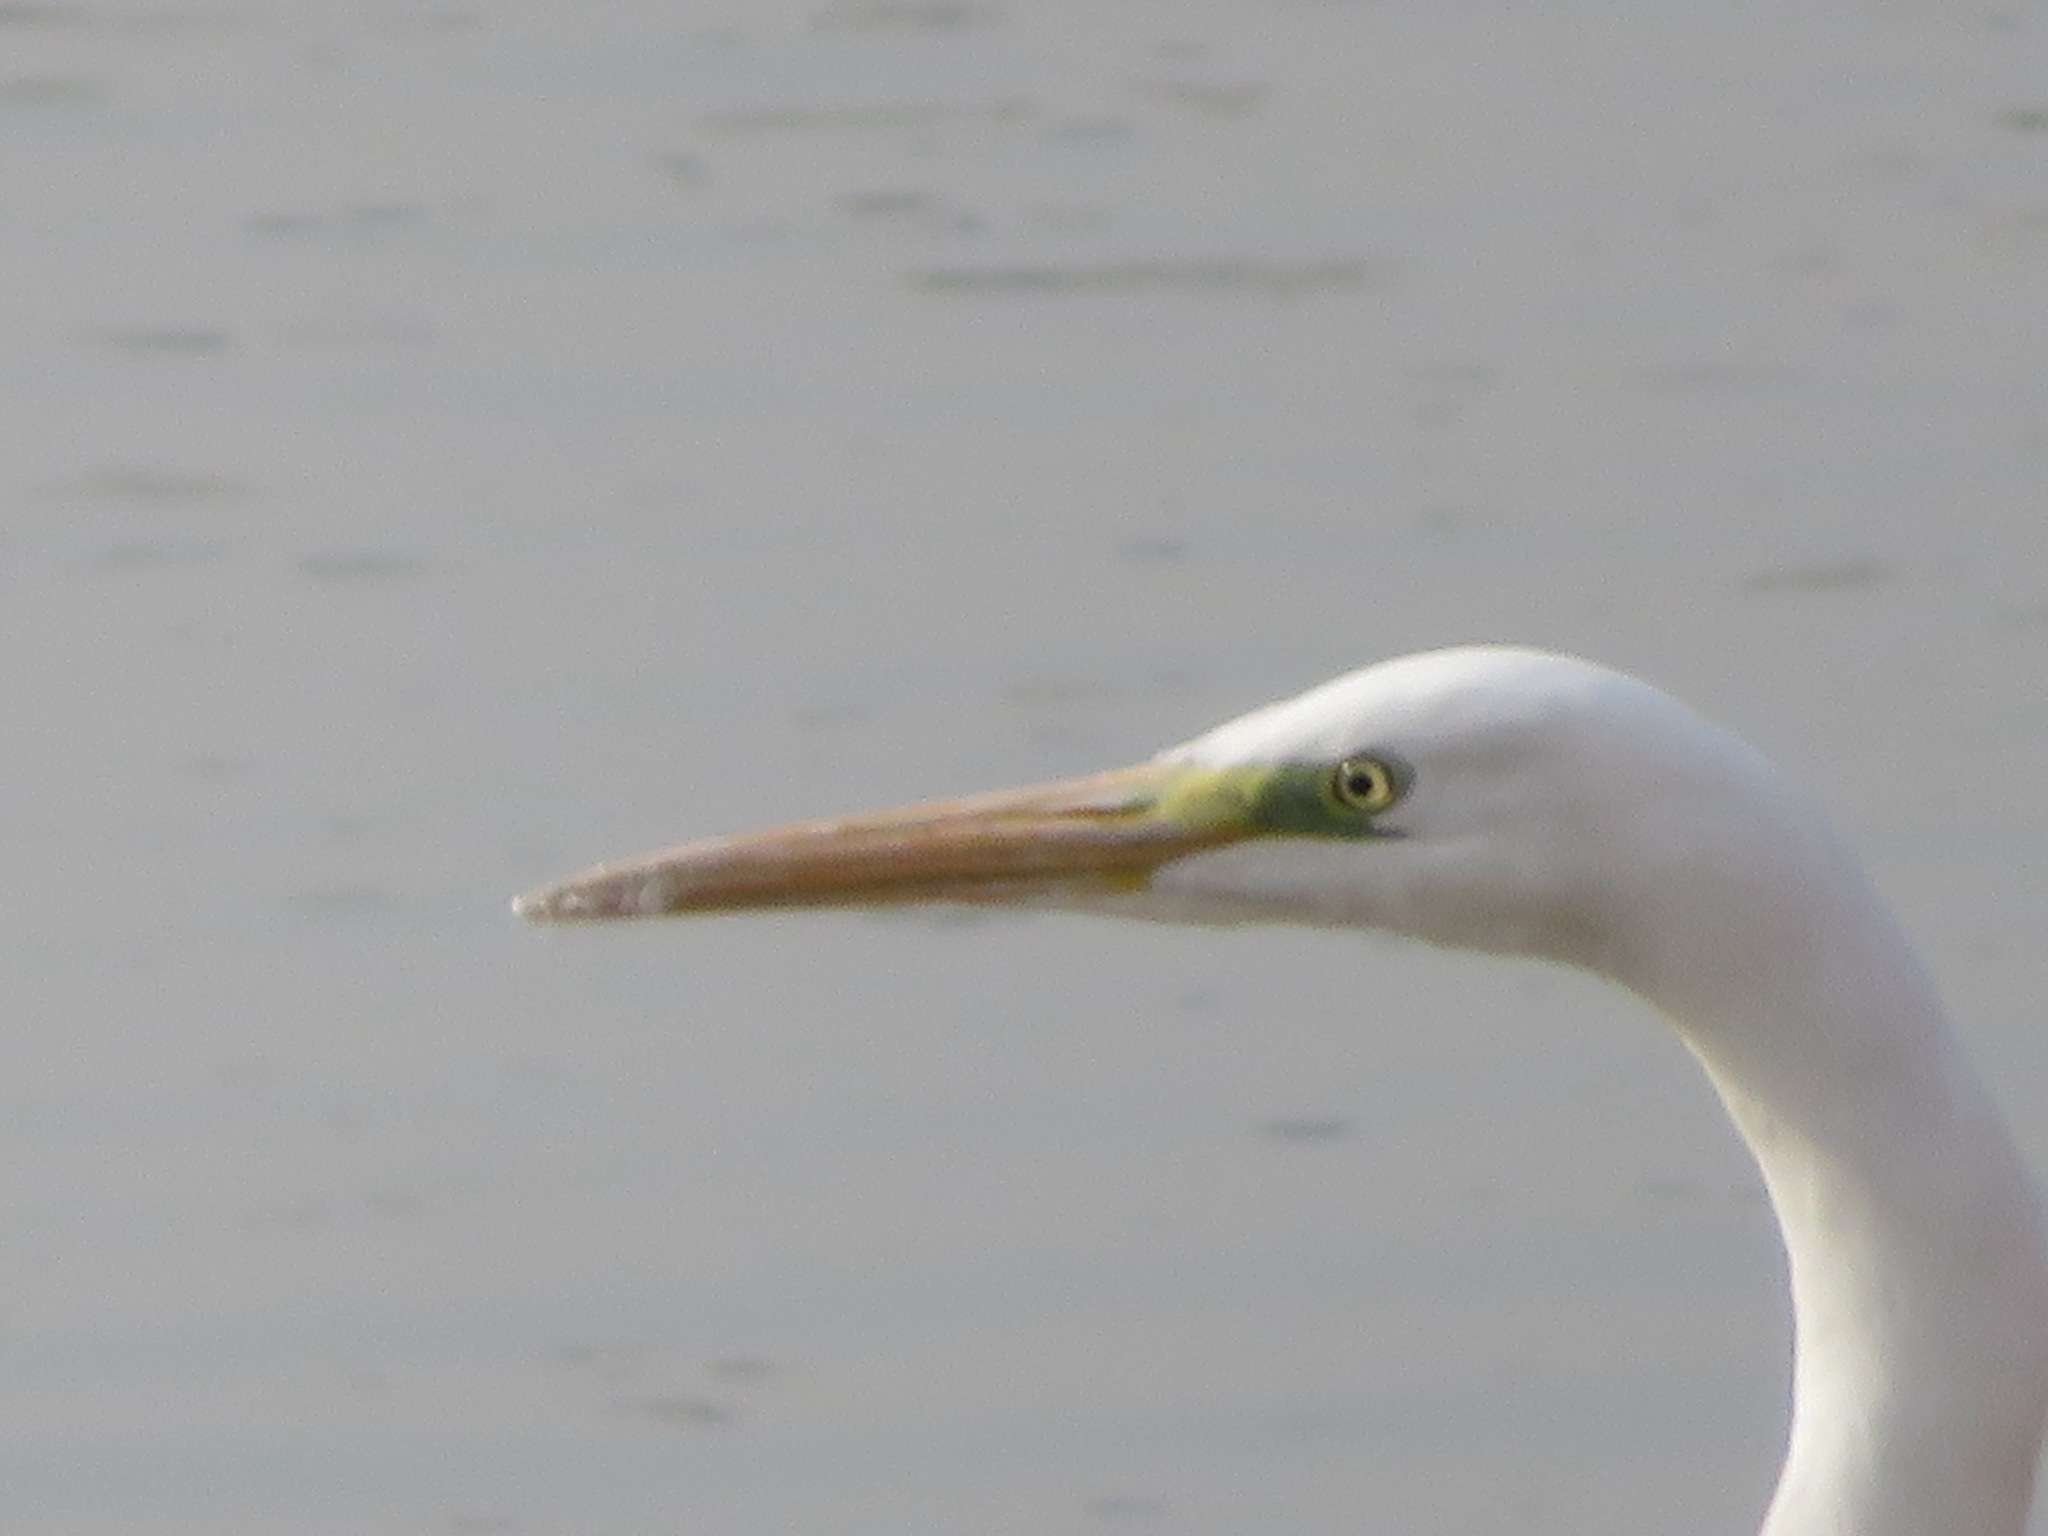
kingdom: Animalia
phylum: Chordata
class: Aves
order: Pelecaniformes
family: Ardeidae
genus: Ardea
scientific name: Ardea alba
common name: Great egret
